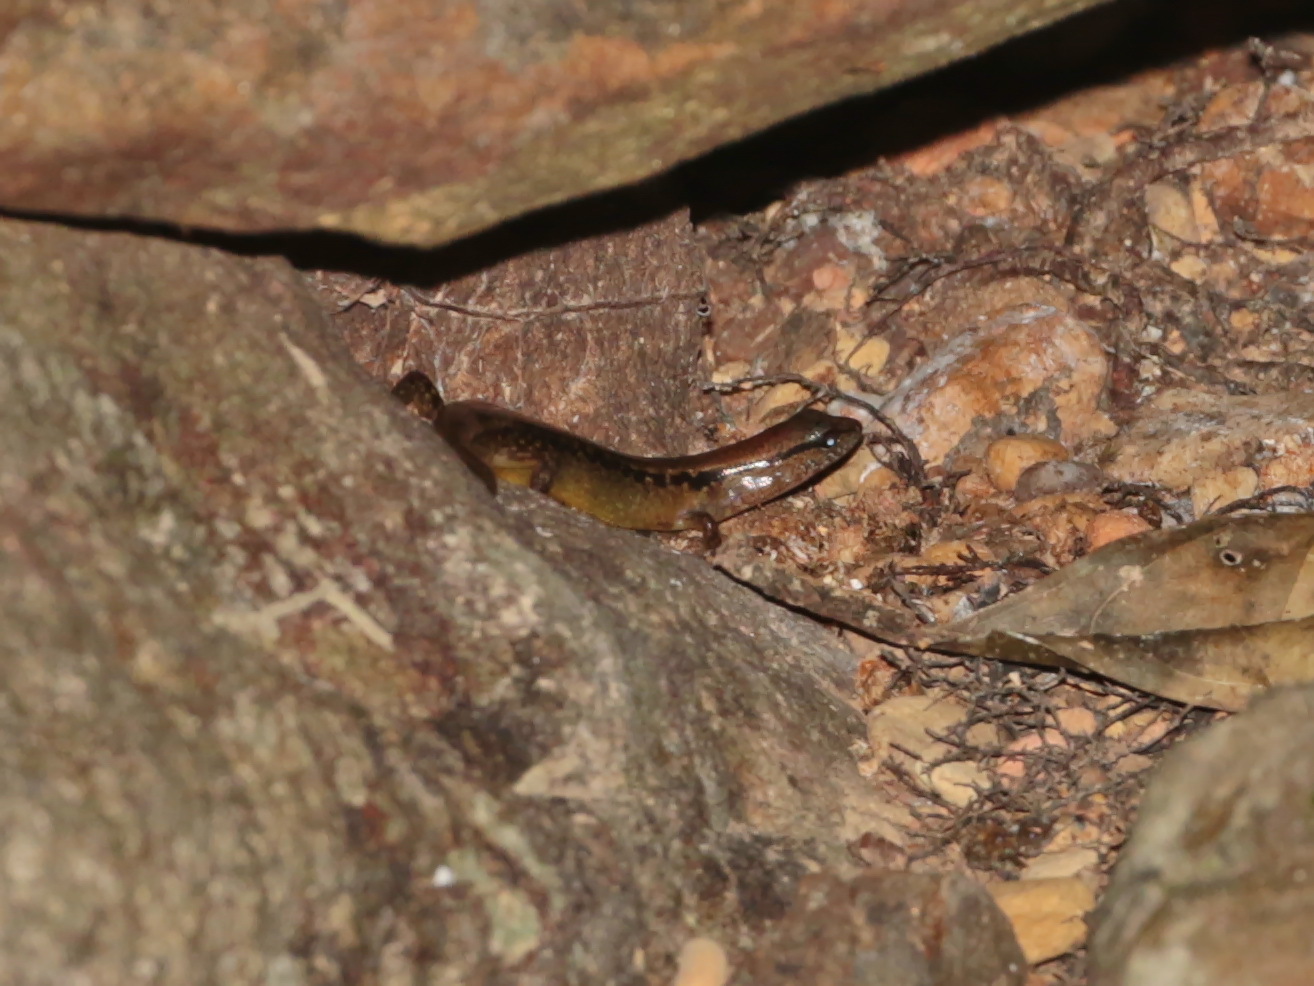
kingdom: Animalia
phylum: Chordata
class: Squamata
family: Scincidae
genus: Sphenomorphus
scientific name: Sphenomorphus grandisonae
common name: Grandison’s forest skink
